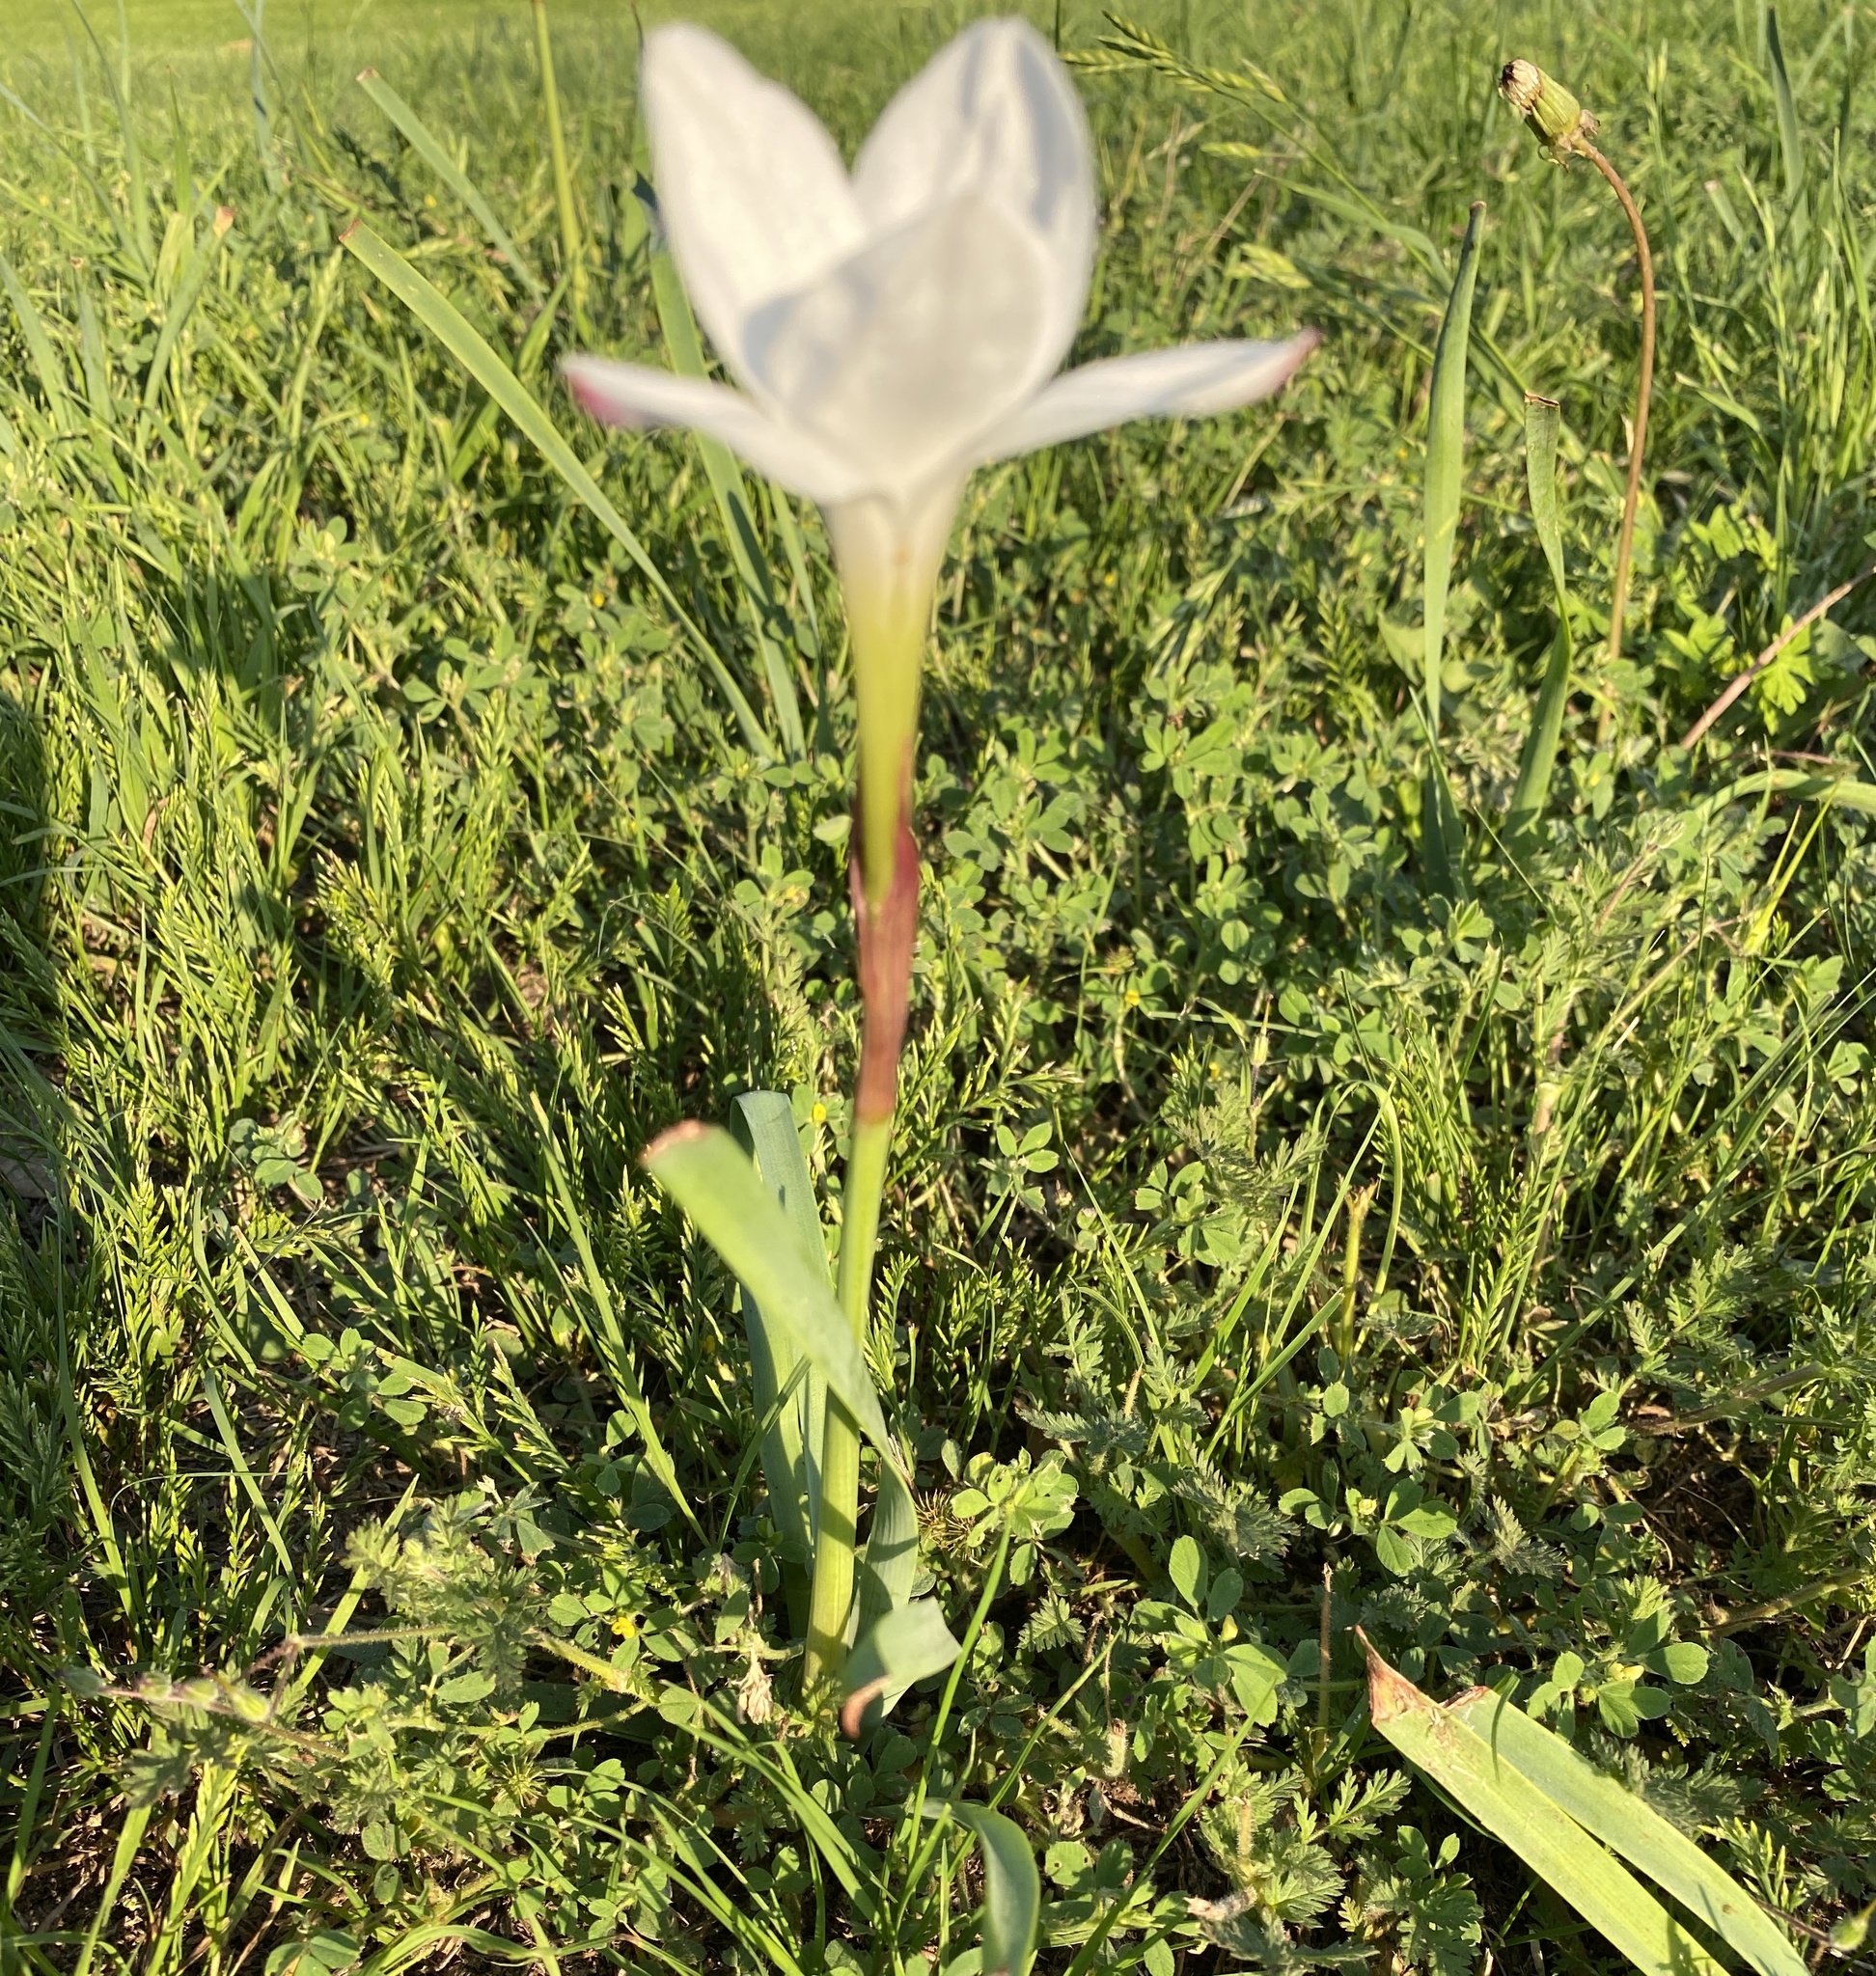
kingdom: Plantae
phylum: Tracheophyta
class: Liliopsida
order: Asparagales
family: Amaryllidaceae
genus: Zephyranthes
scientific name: Zephyranthes drummondii
